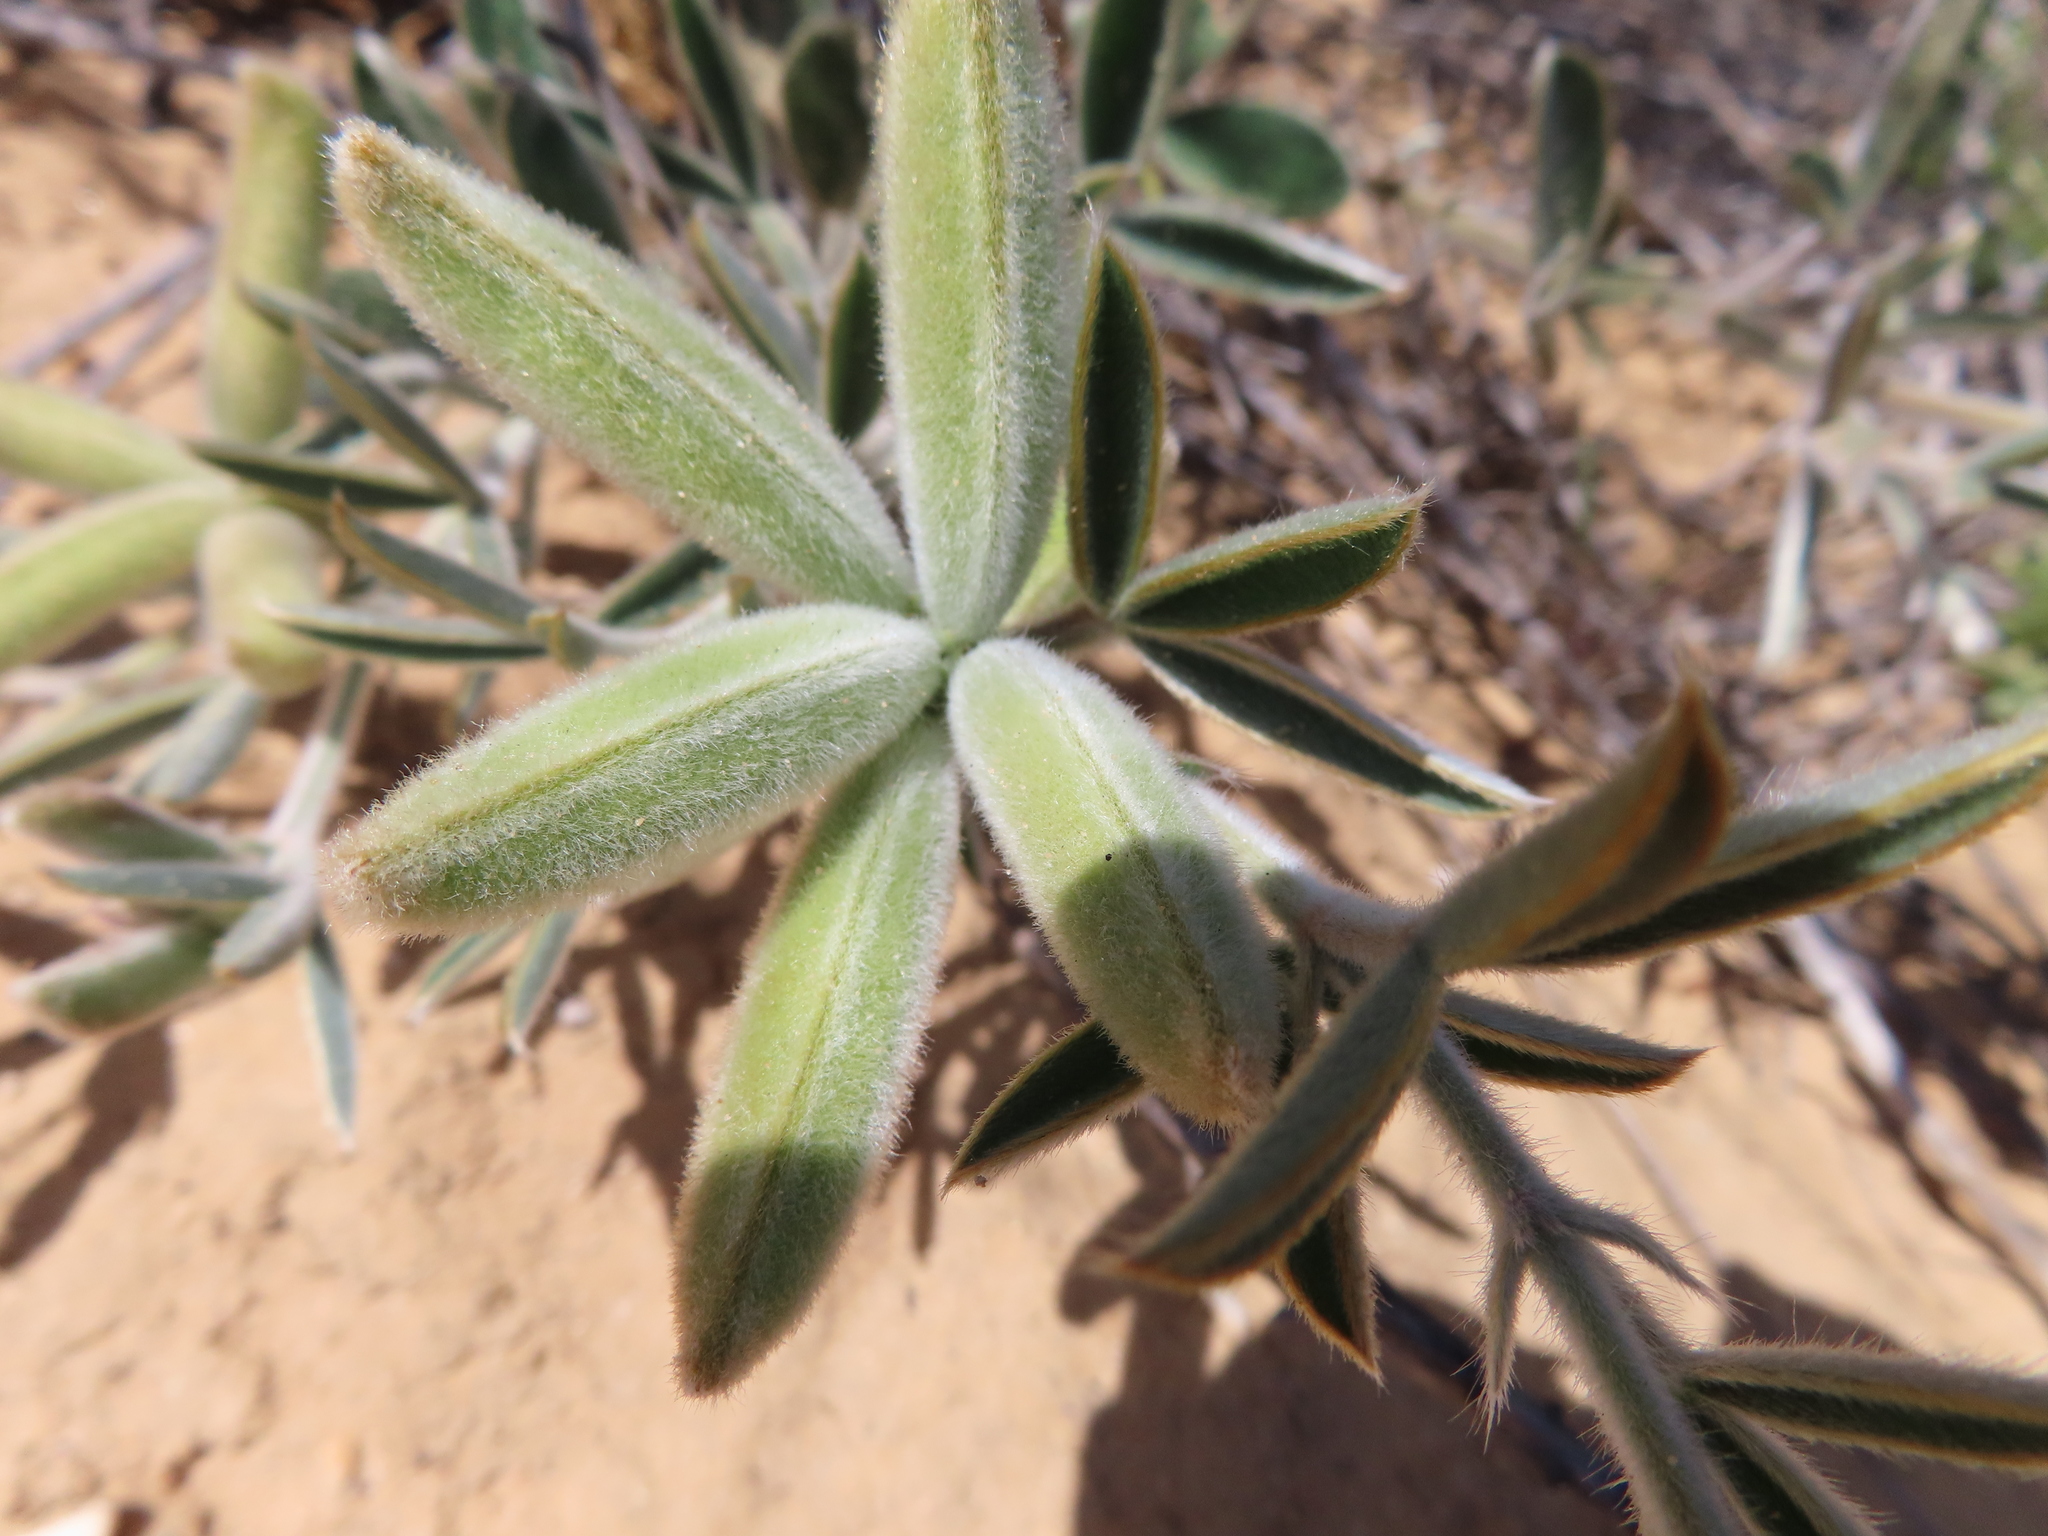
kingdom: Plantae
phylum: Tracheophyta
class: Magnoliopsida
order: Fabales
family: Fabaceae
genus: Argyrolobium
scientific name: Argyrolobium velutinum
